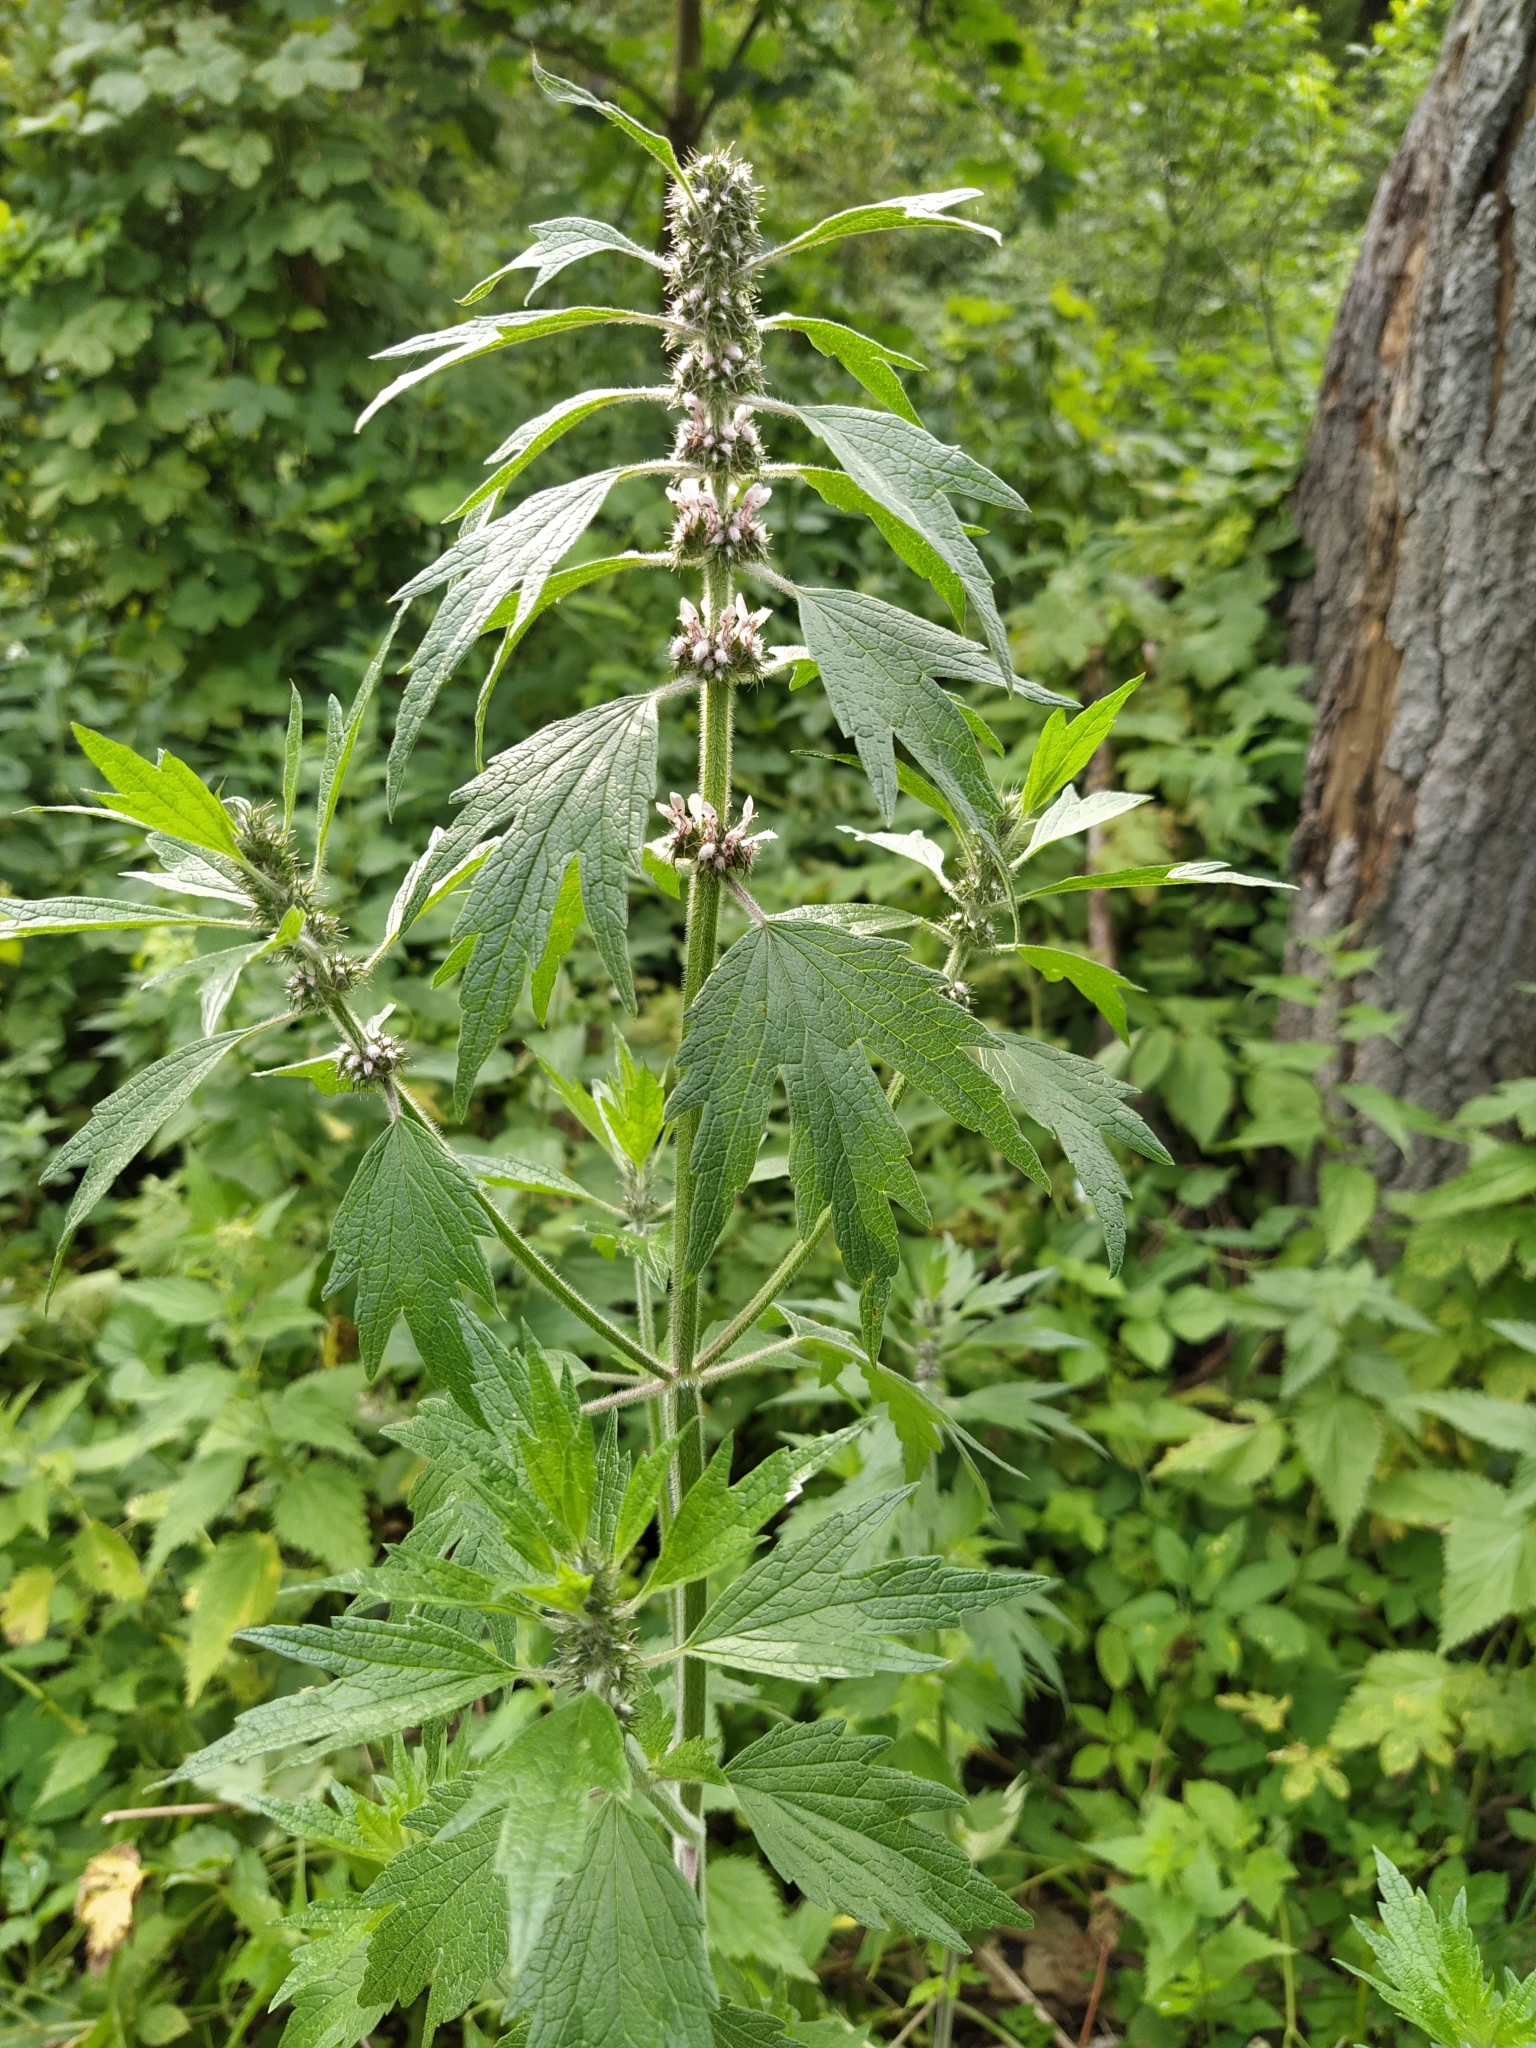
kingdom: Plantae
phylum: Tracheophyta
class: Magnoliopsida
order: Lamiales
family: Lamiaceae
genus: Leonurus
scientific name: Leonurus quinquelobatus
